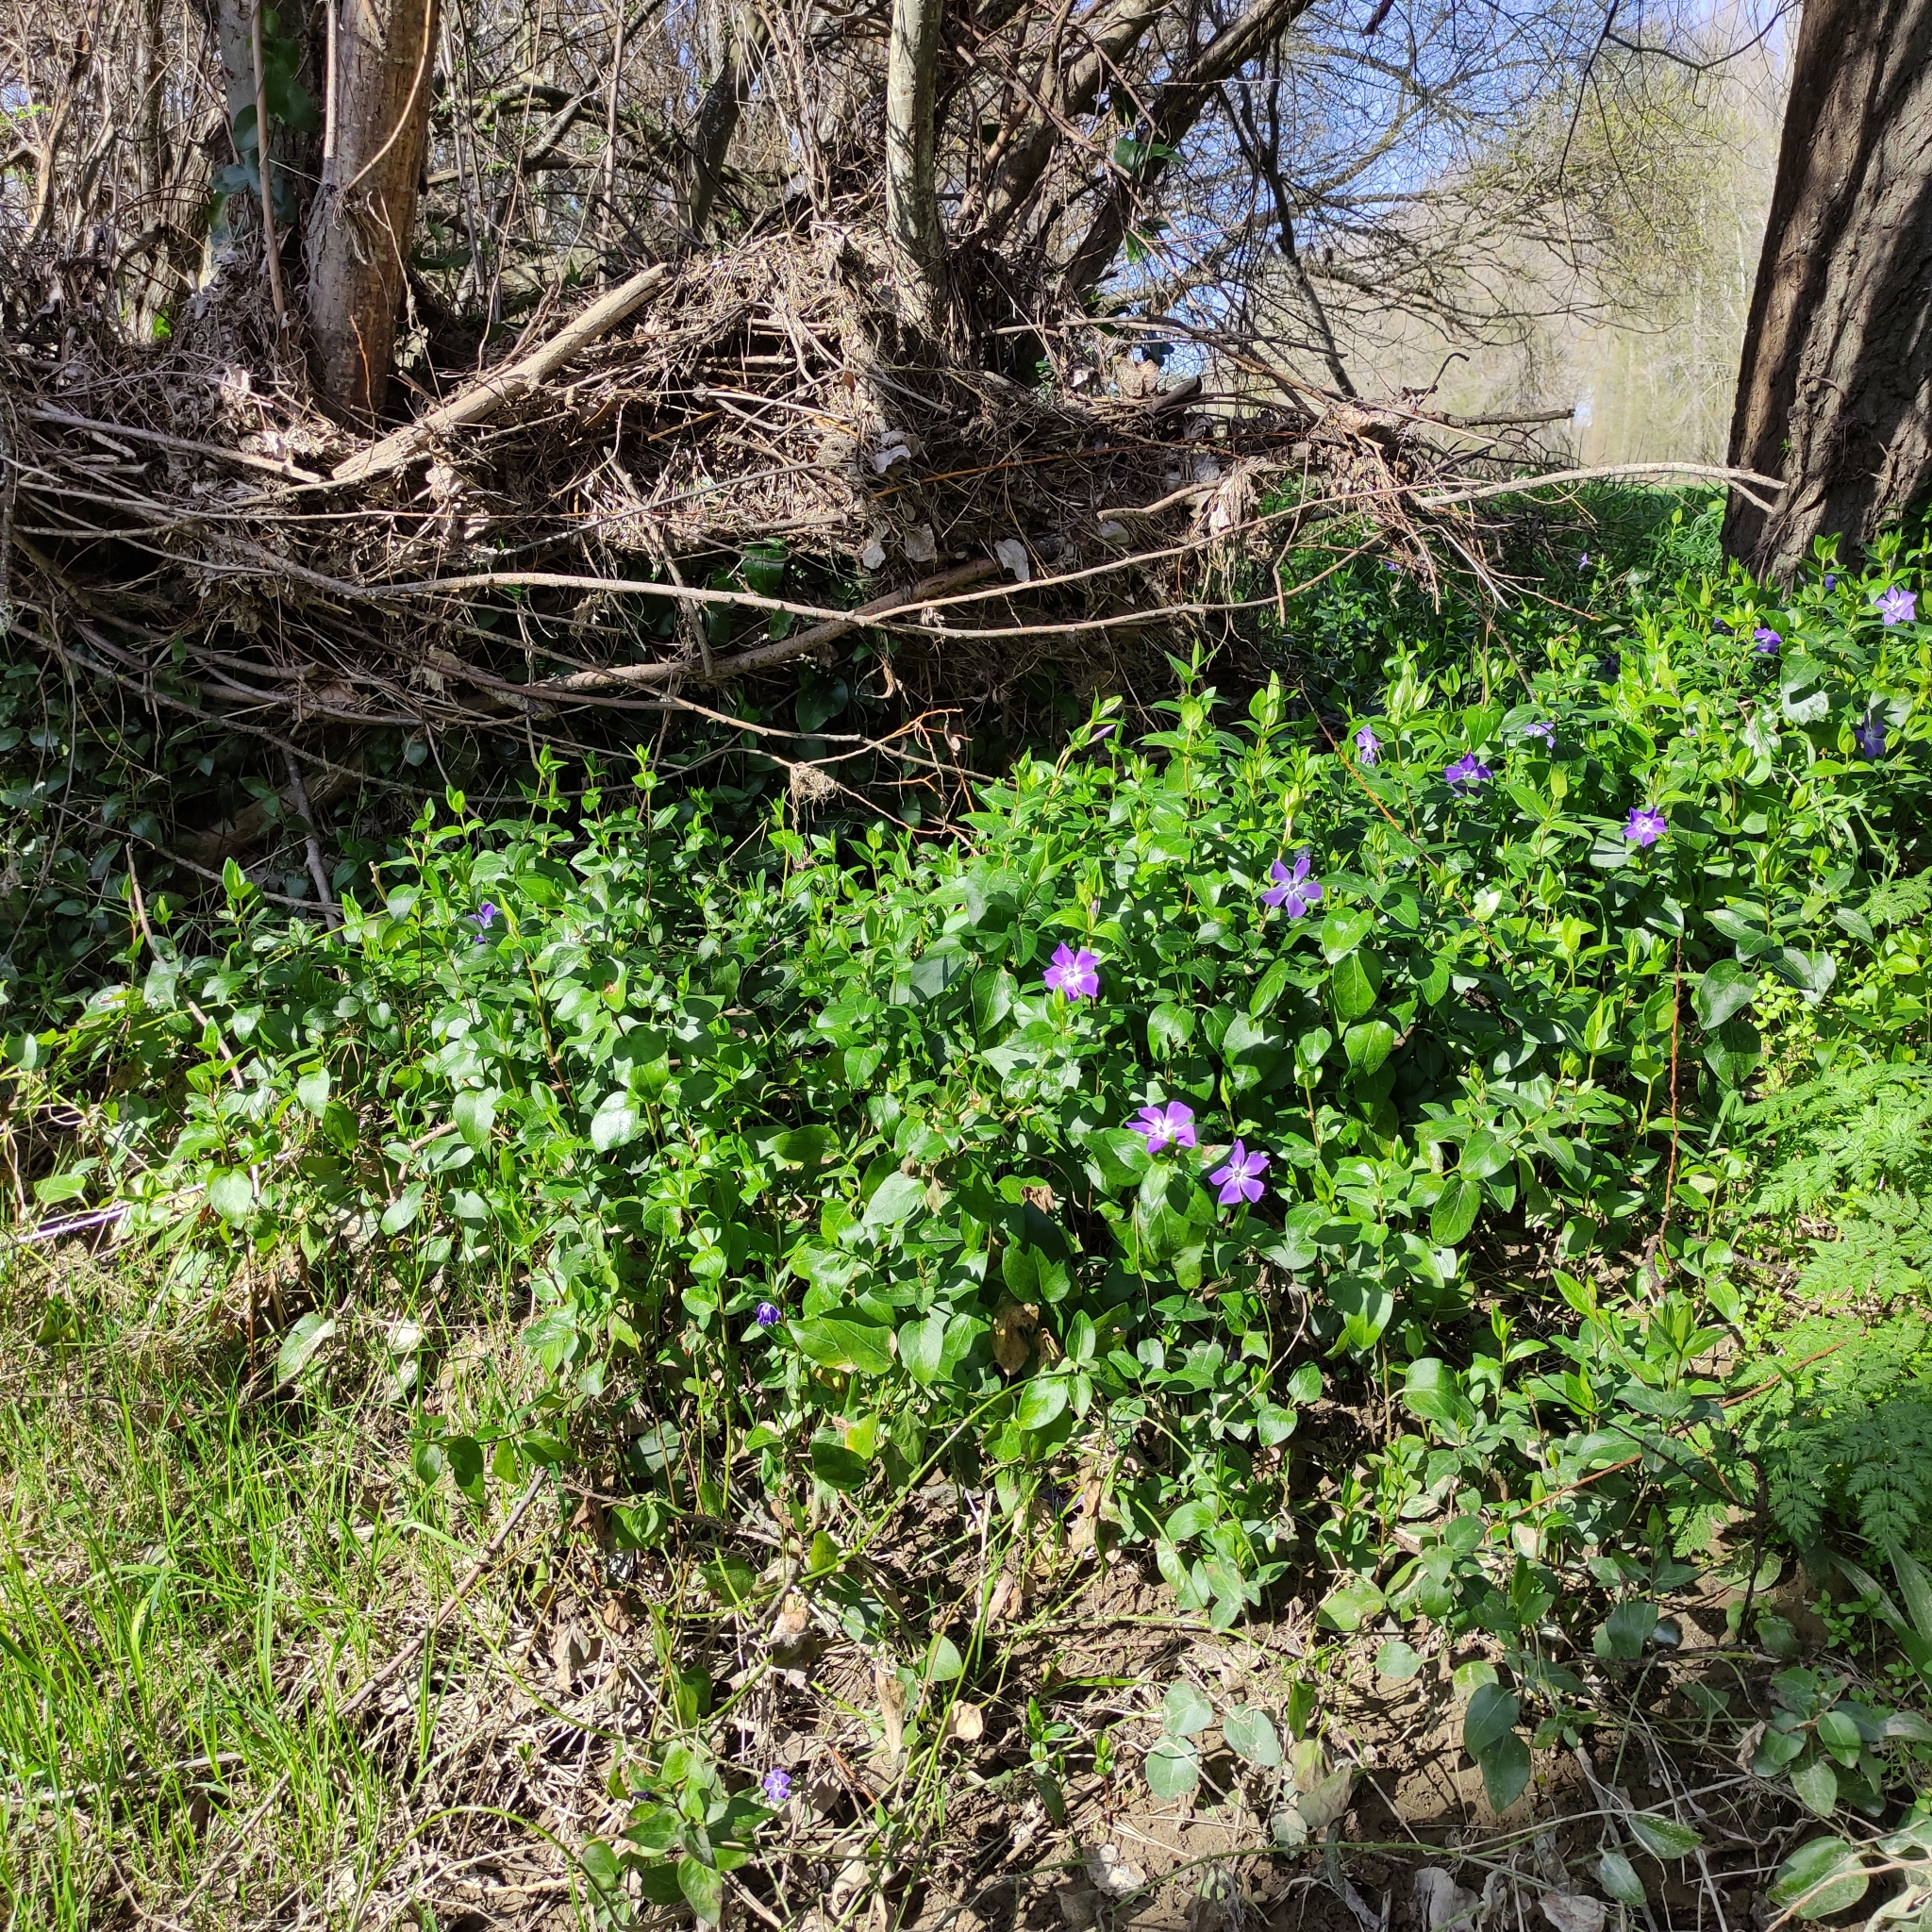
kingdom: Plantae
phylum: Tracheophyta
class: Magnoliopsida
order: Gentianales
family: Apocynaceae
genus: Vinca
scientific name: Vinca major
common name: Greater periwinkle
